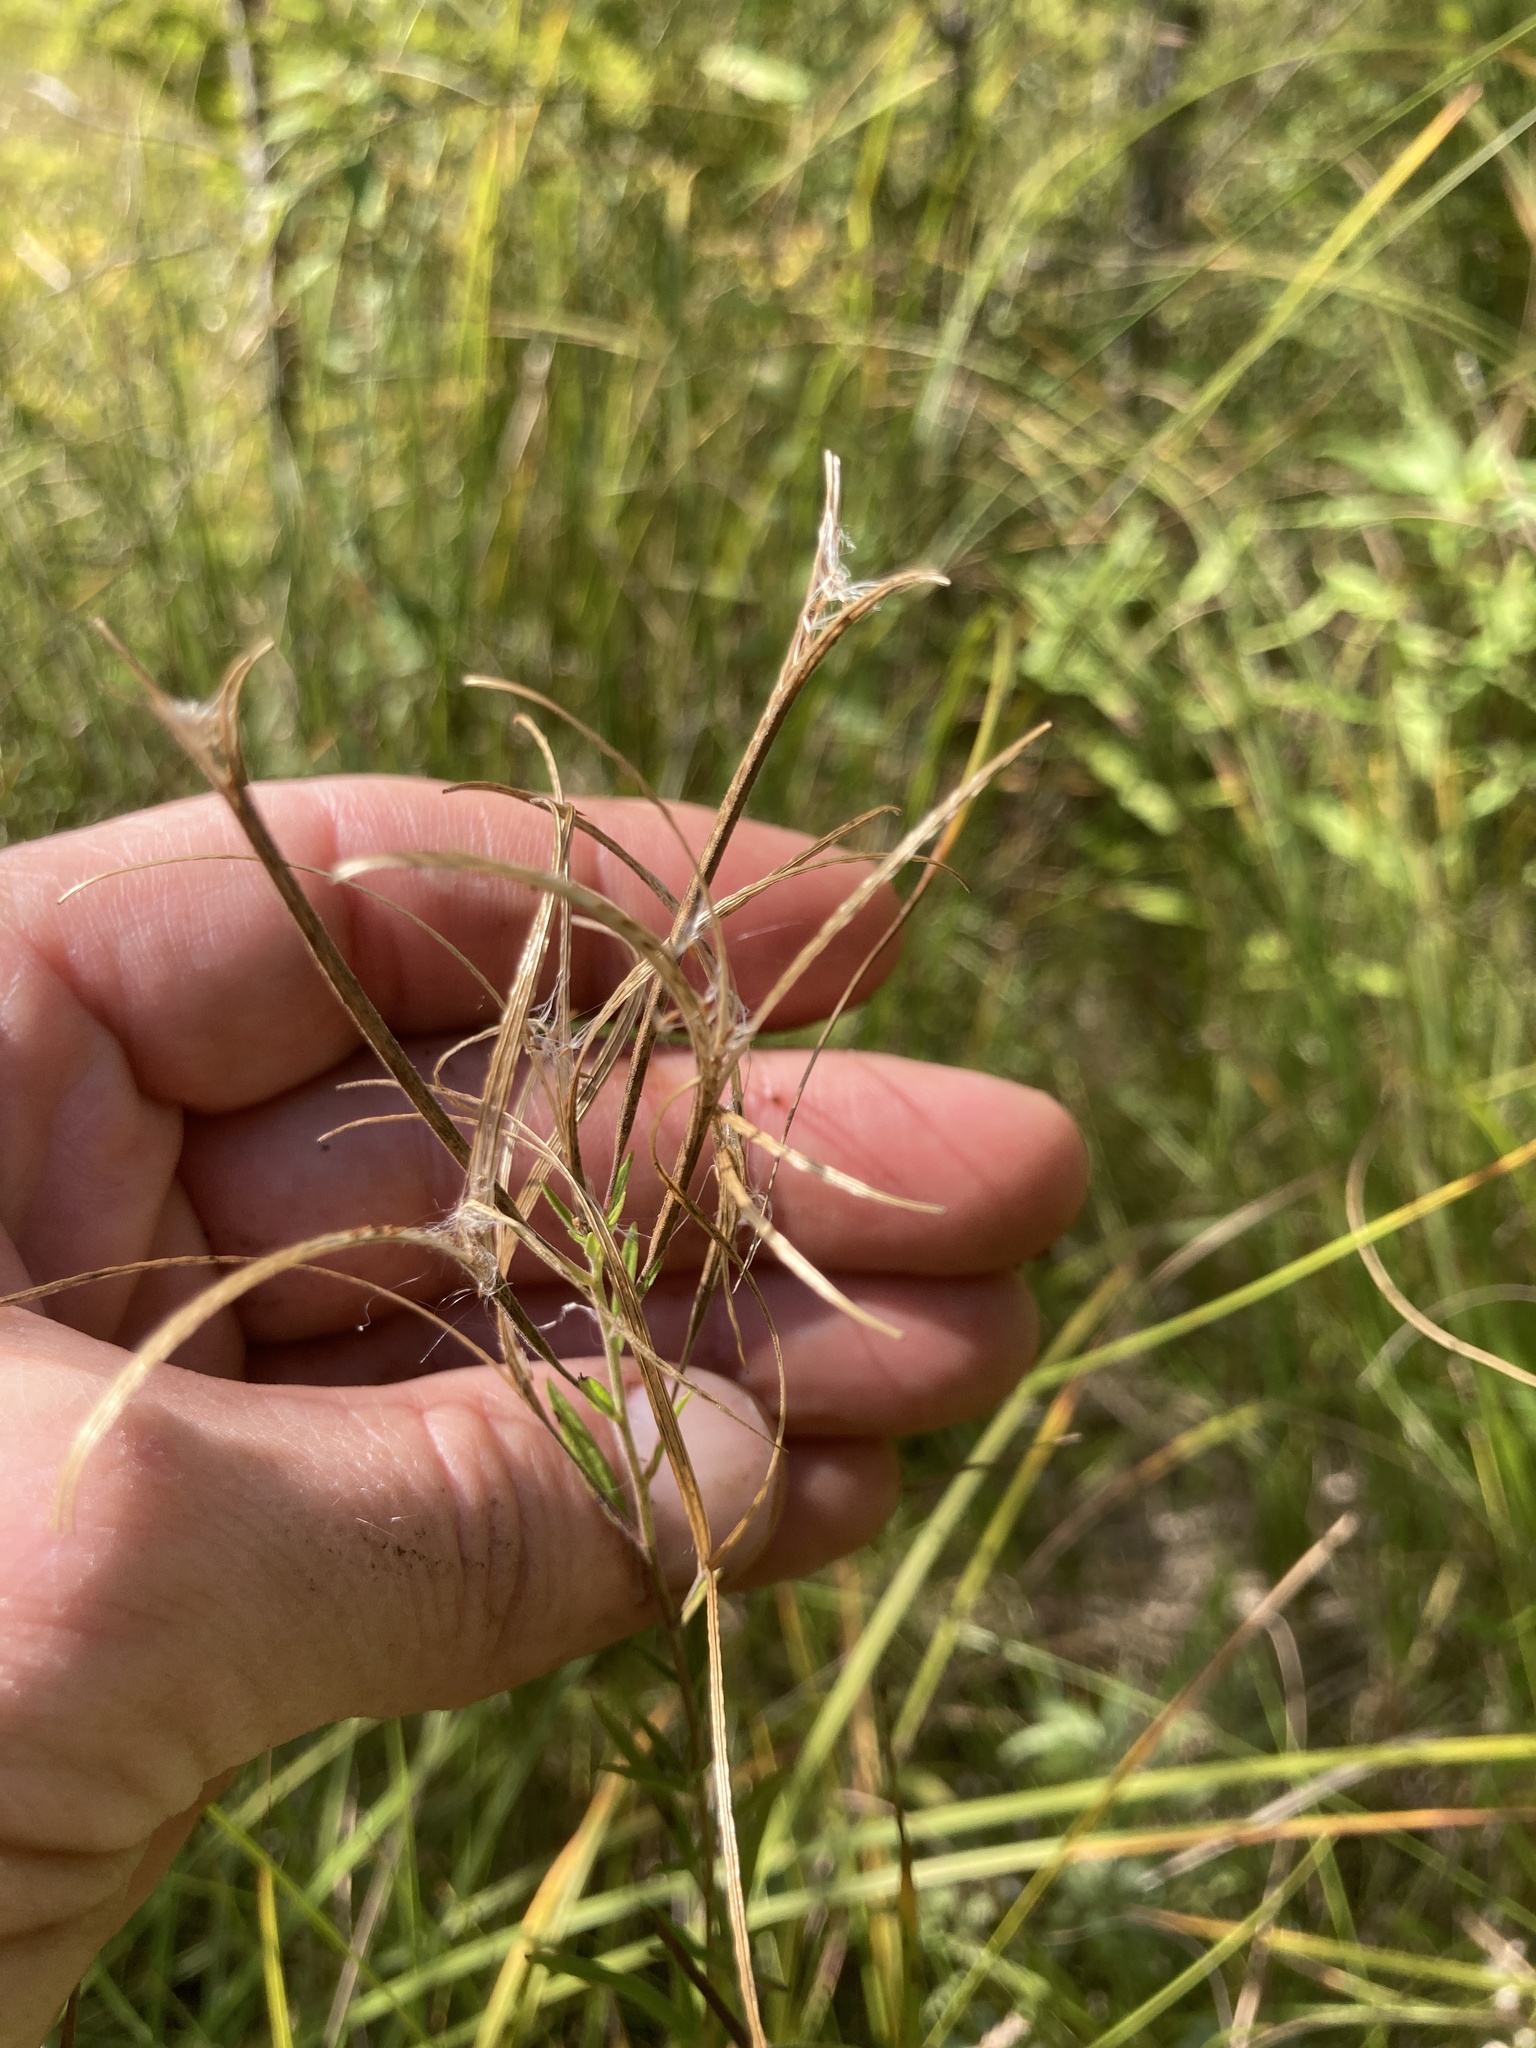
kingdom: Plantae
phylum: Tracheophyta
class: Magnoliopsida
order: Myrtales
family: Onagraceae
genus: Epilobium
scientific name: Epilobium leptophyllum
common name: Bog willowherb
